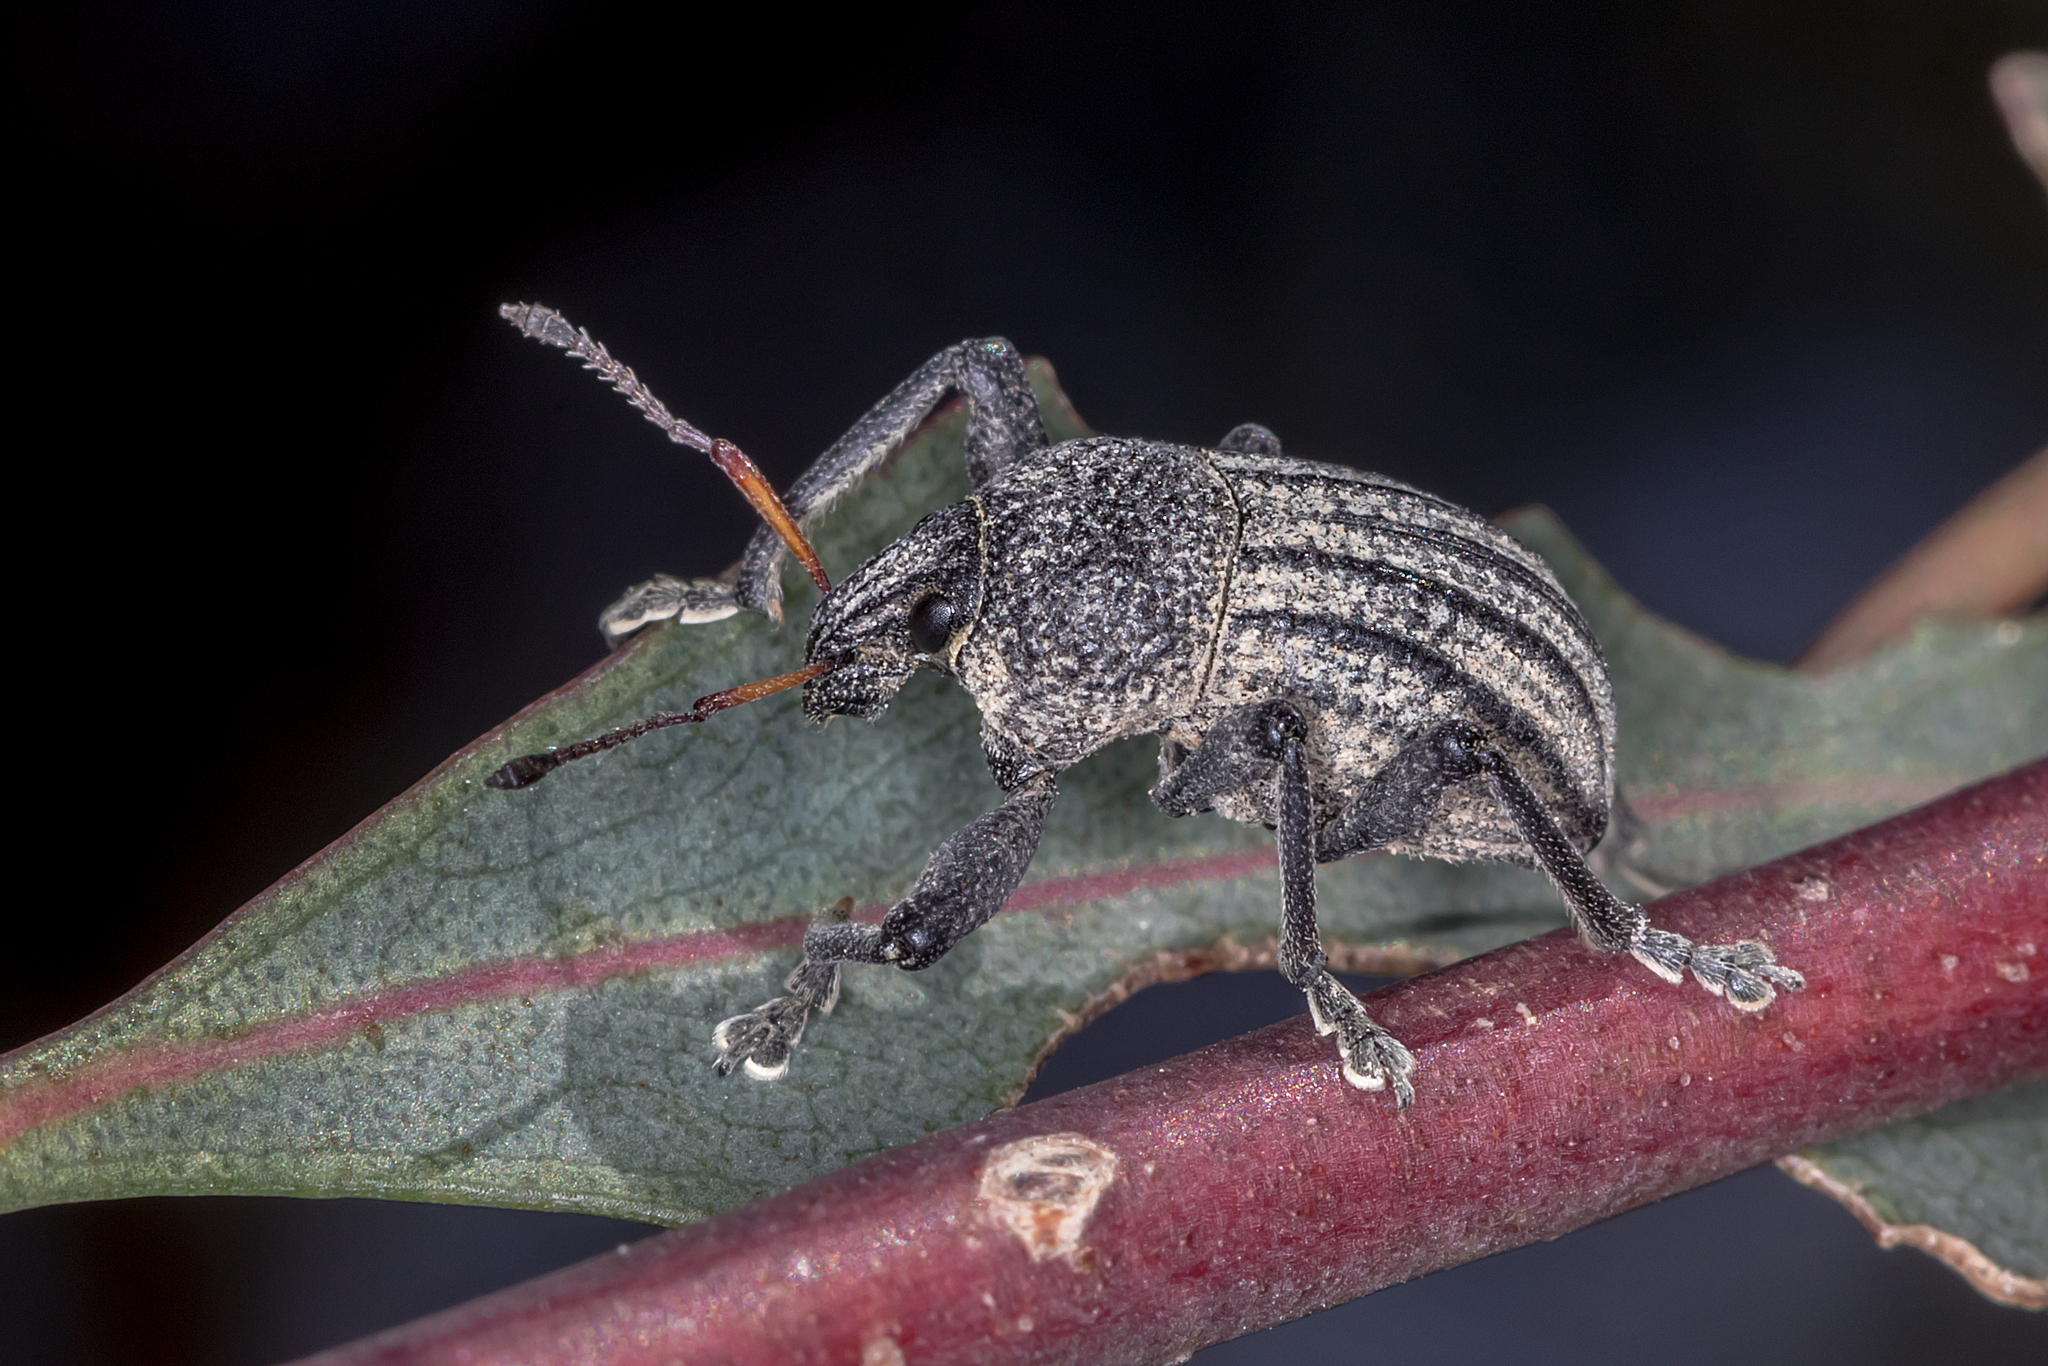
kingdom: Animalia
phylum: Arthropoda
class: Insecta
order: Coleoptera
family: Curculionidae
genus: Psapharus
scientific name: Psapharus ruficornis
